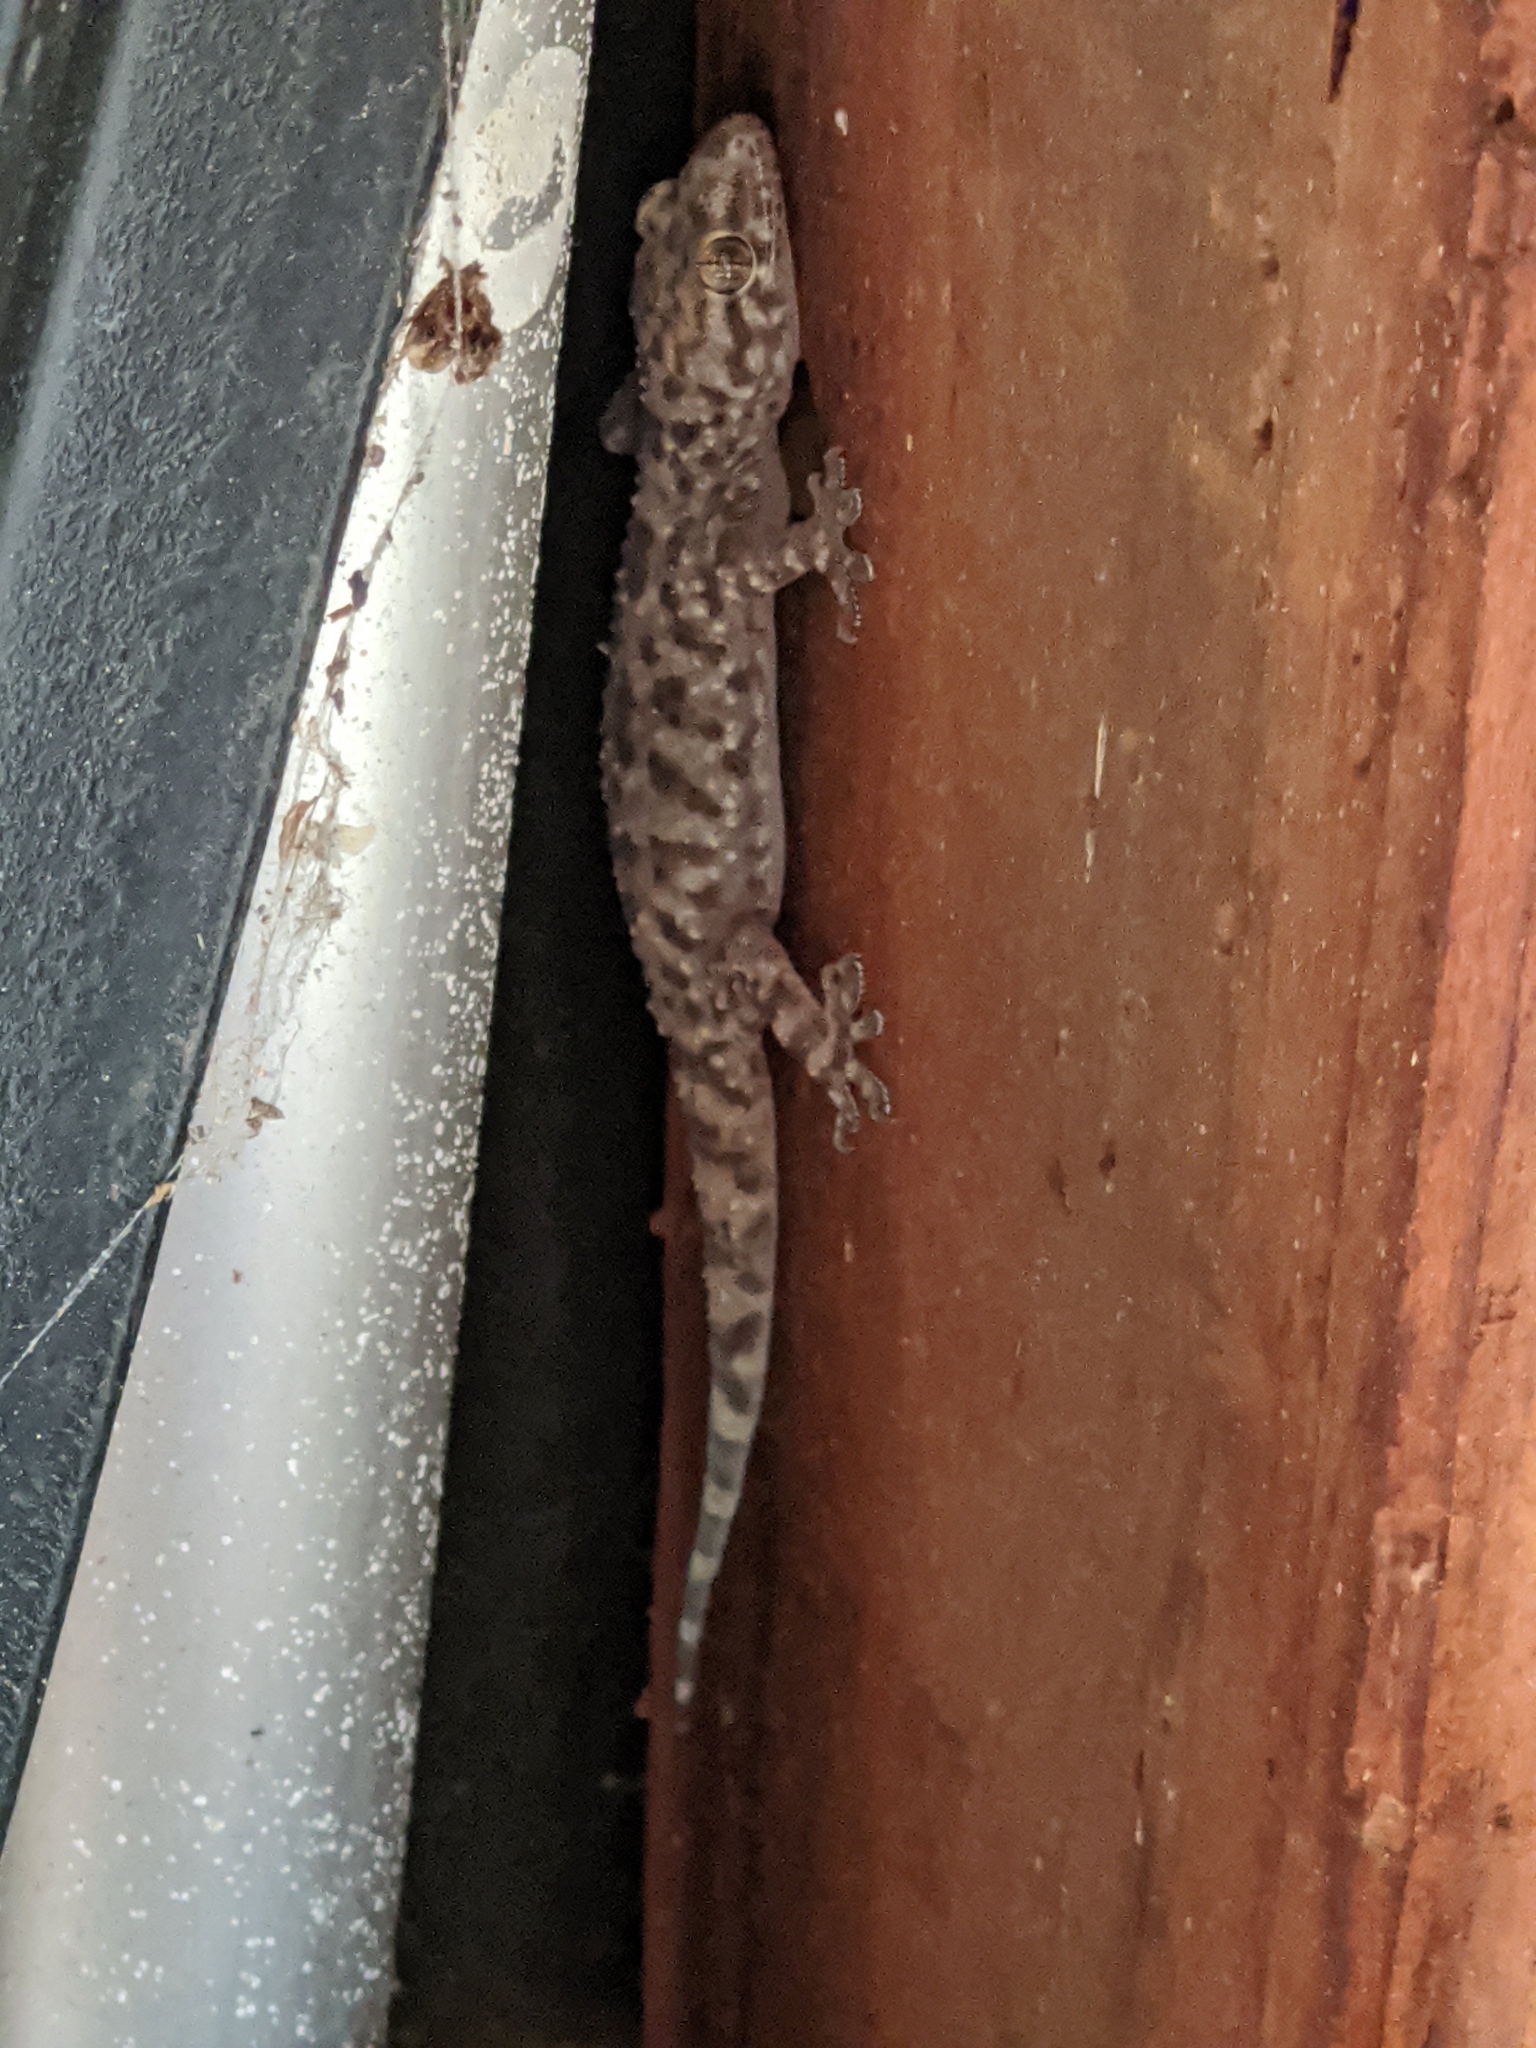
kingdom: Animalia
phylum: Chordata
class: Squamata
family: Gekkonidae
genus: Hemidactylus
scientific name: Hemidactylus turcicus
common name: Turkish gecko
